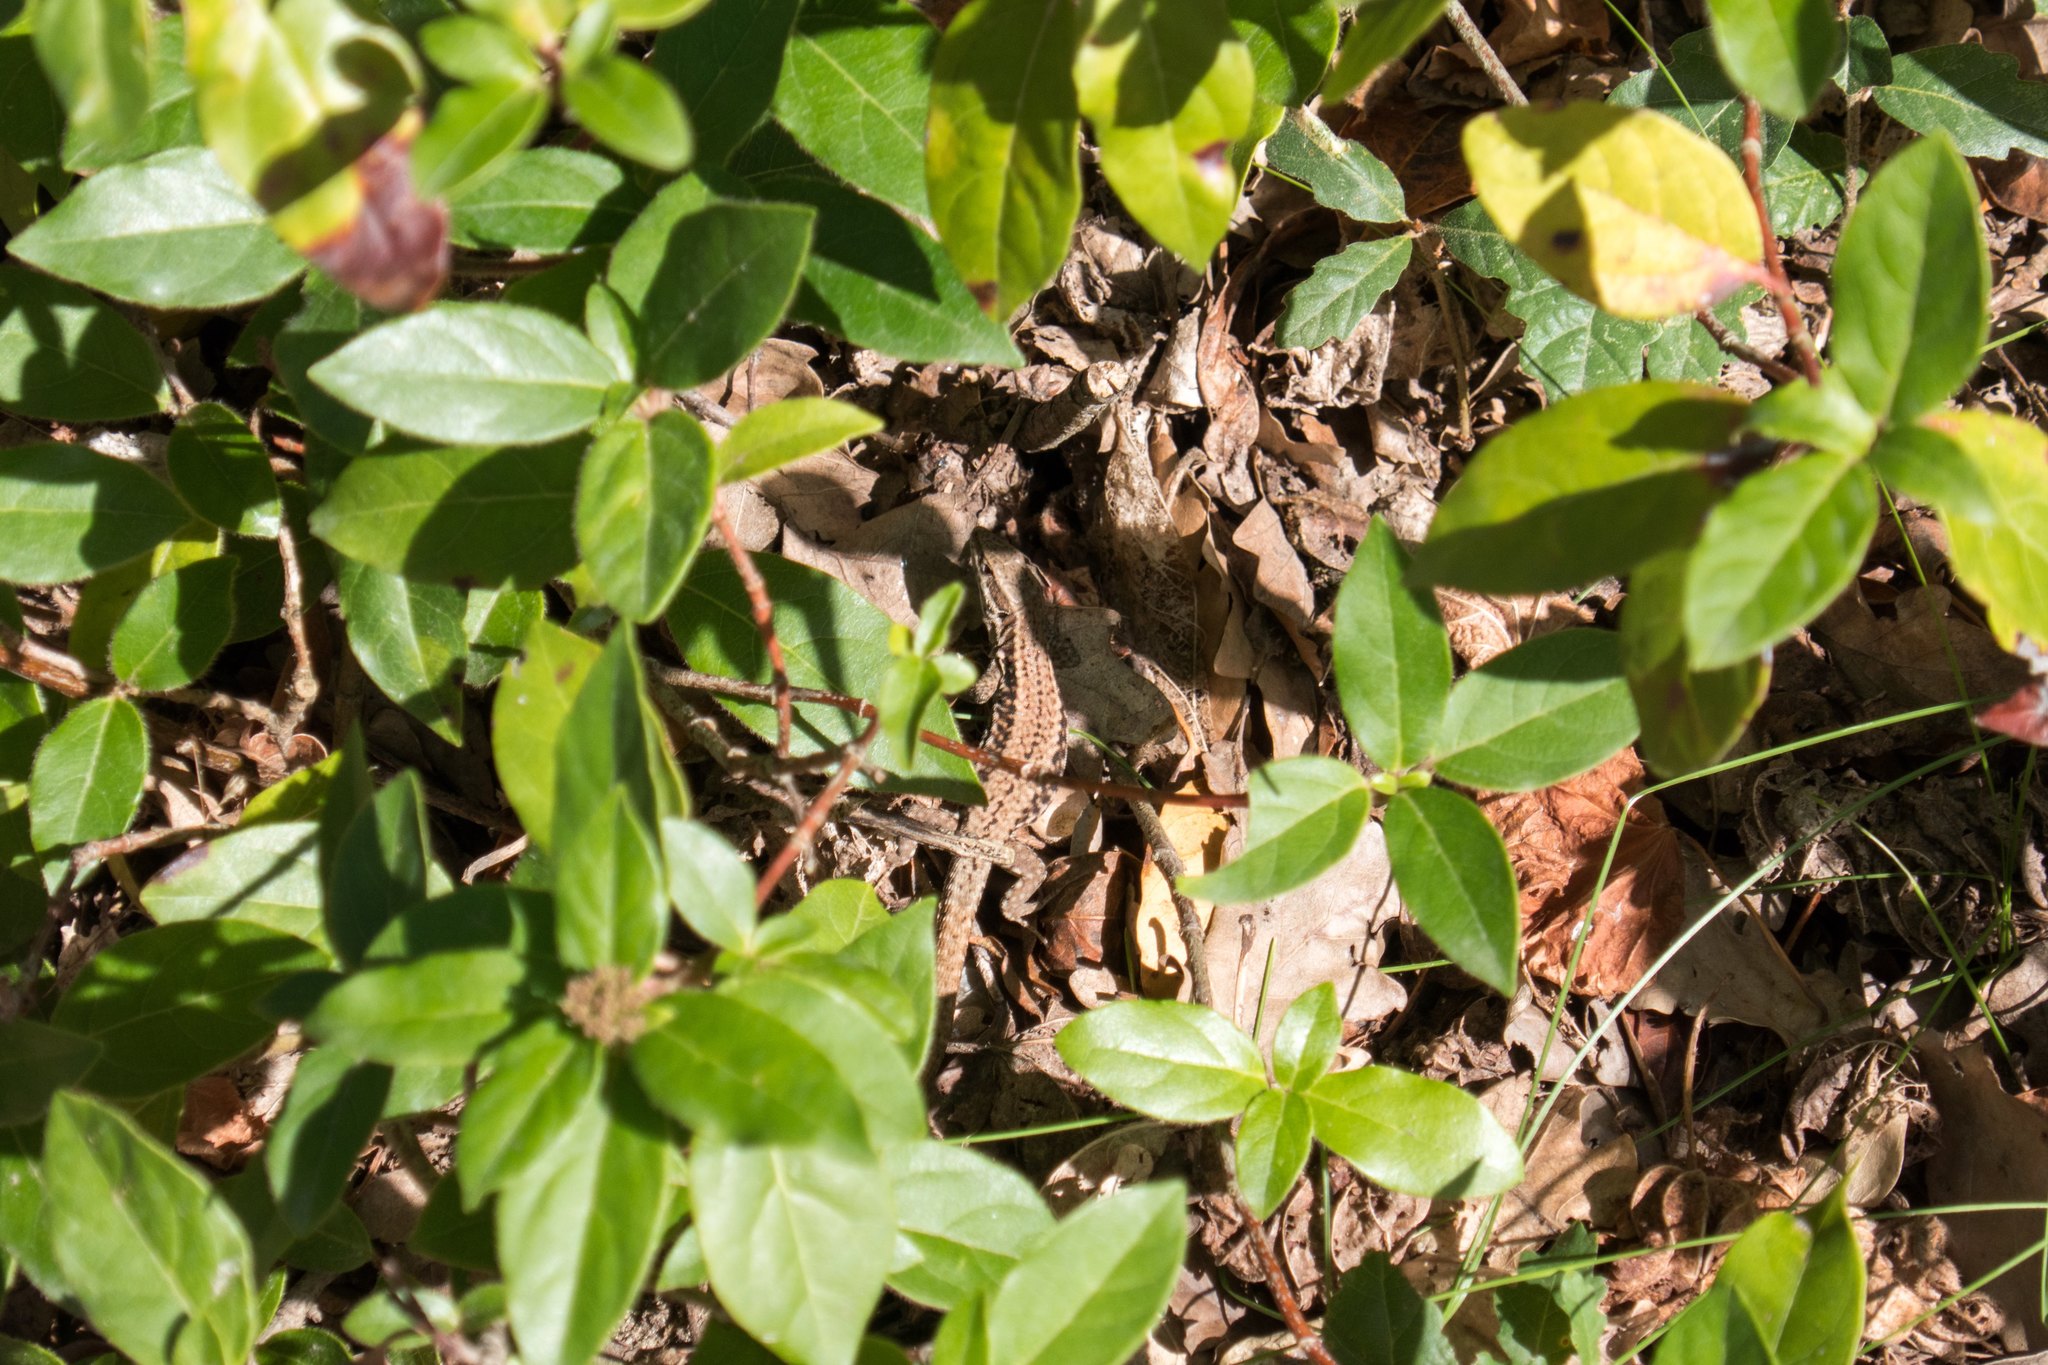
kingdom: Animalia
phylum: Chordata
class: Squamata
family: Lacertidae
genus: Podarcis
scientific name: Podarcis muralis
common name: Common wall lizard
